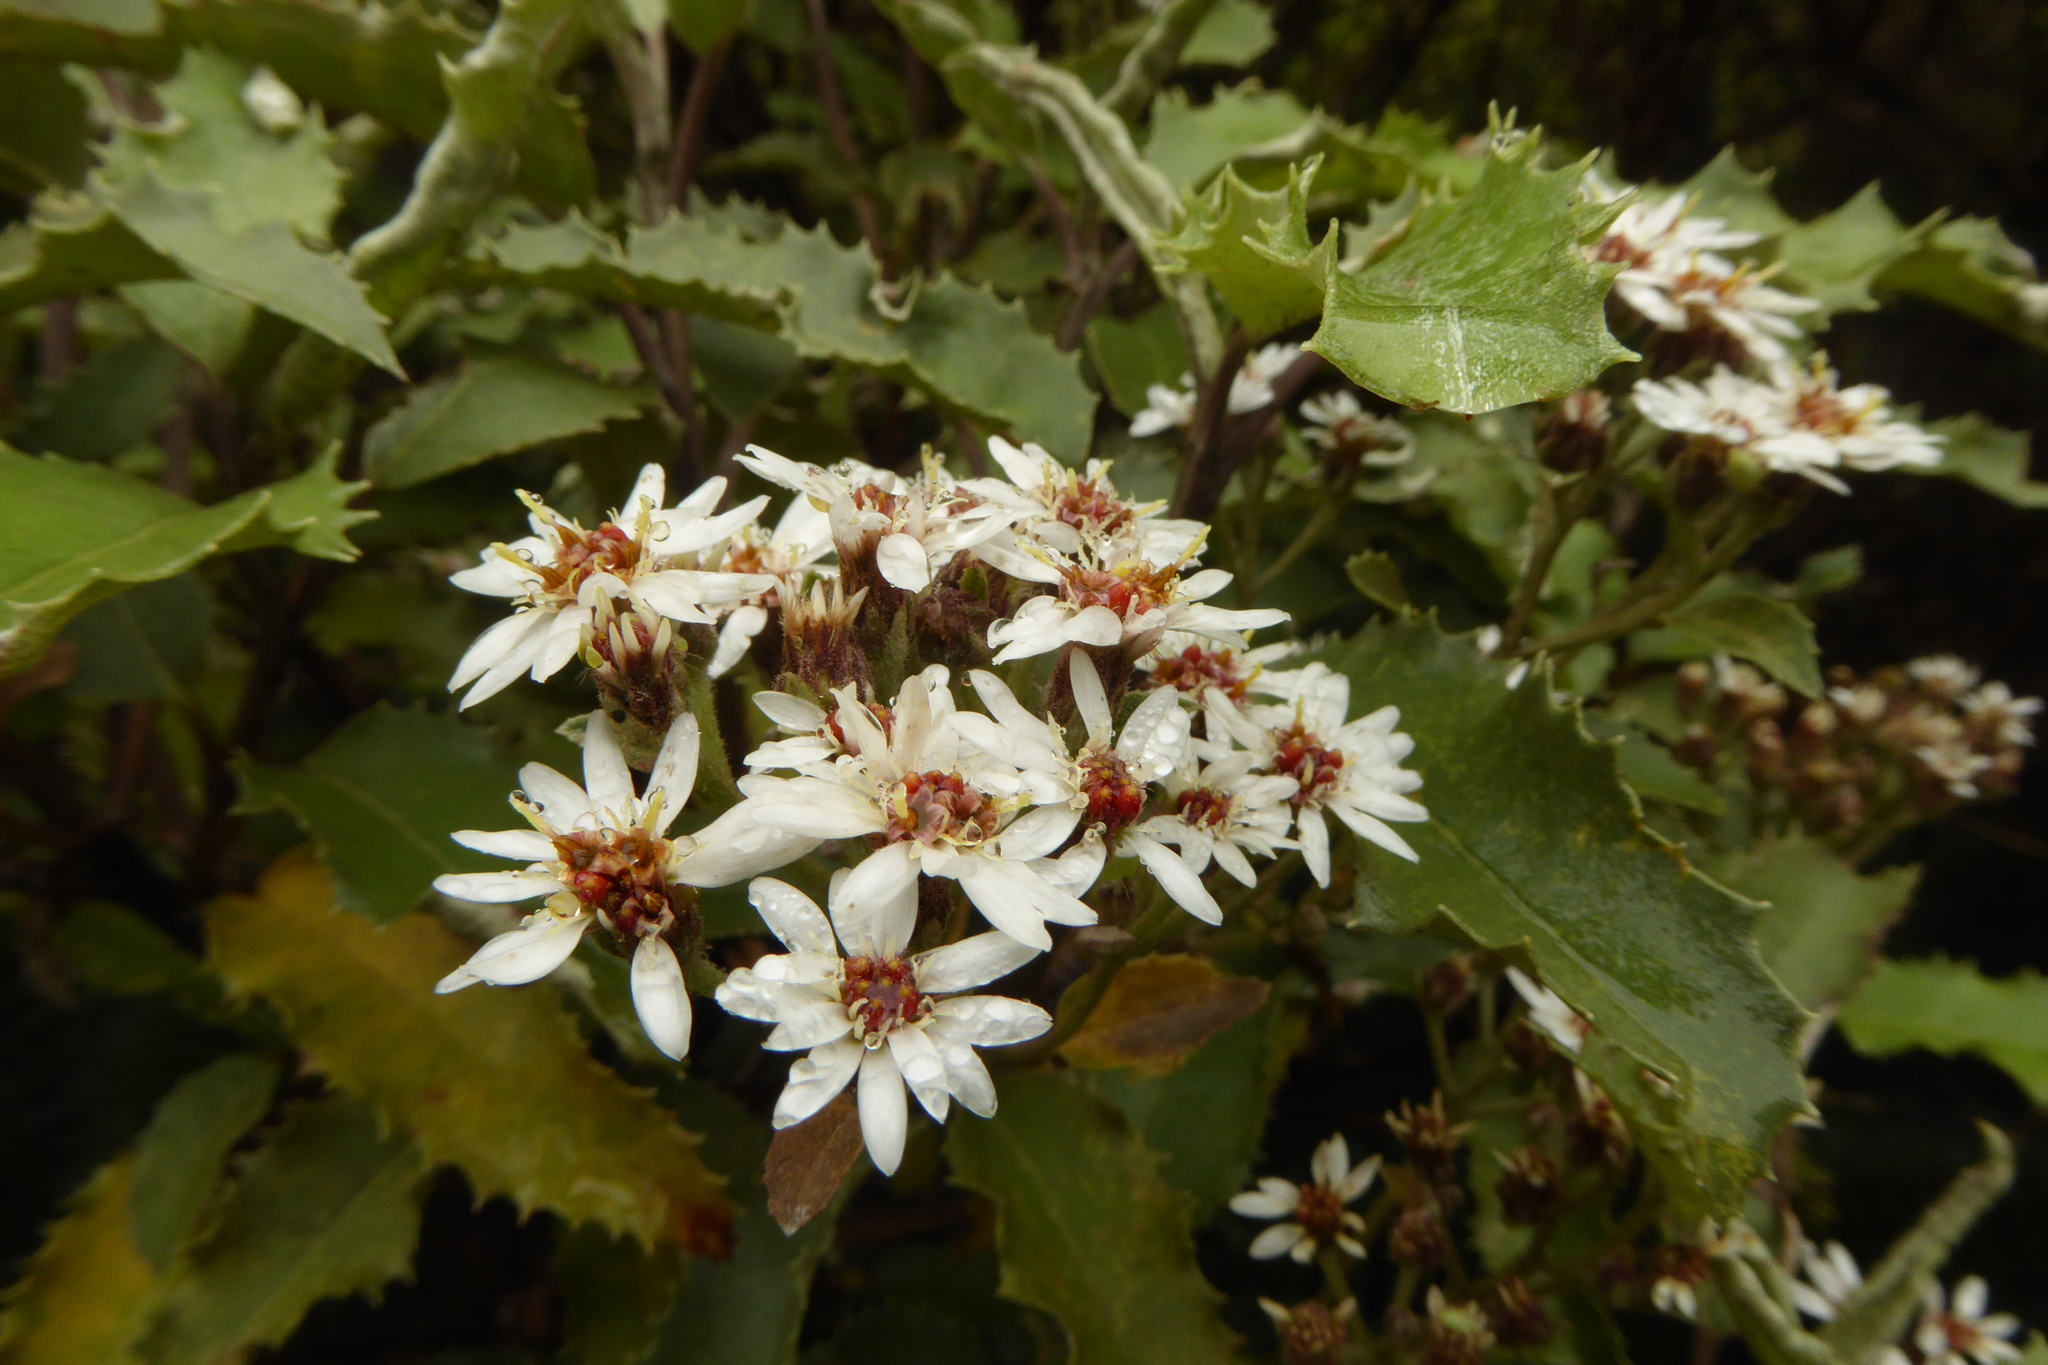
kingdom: Plantae
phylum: Tracheophyta
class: Magnoliopsida
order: Asterales
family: Asteraceae
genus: Olearia
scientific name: Olearia ilicifolia
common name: Maori-holly
